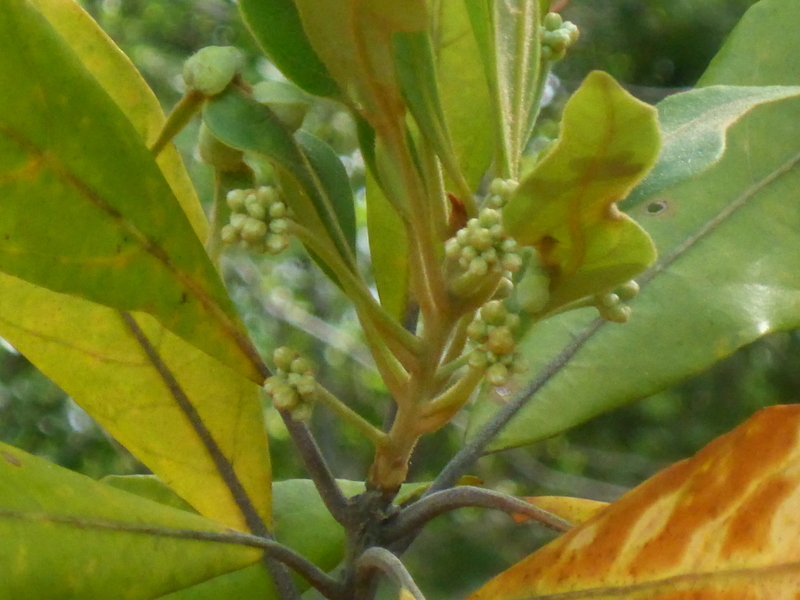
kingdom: Plantae
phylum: Tracheophyta
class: Magnoliopsida
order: Laurales
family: Lauraceae
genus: Persea
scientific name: Persea palustris
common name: Swampbay
